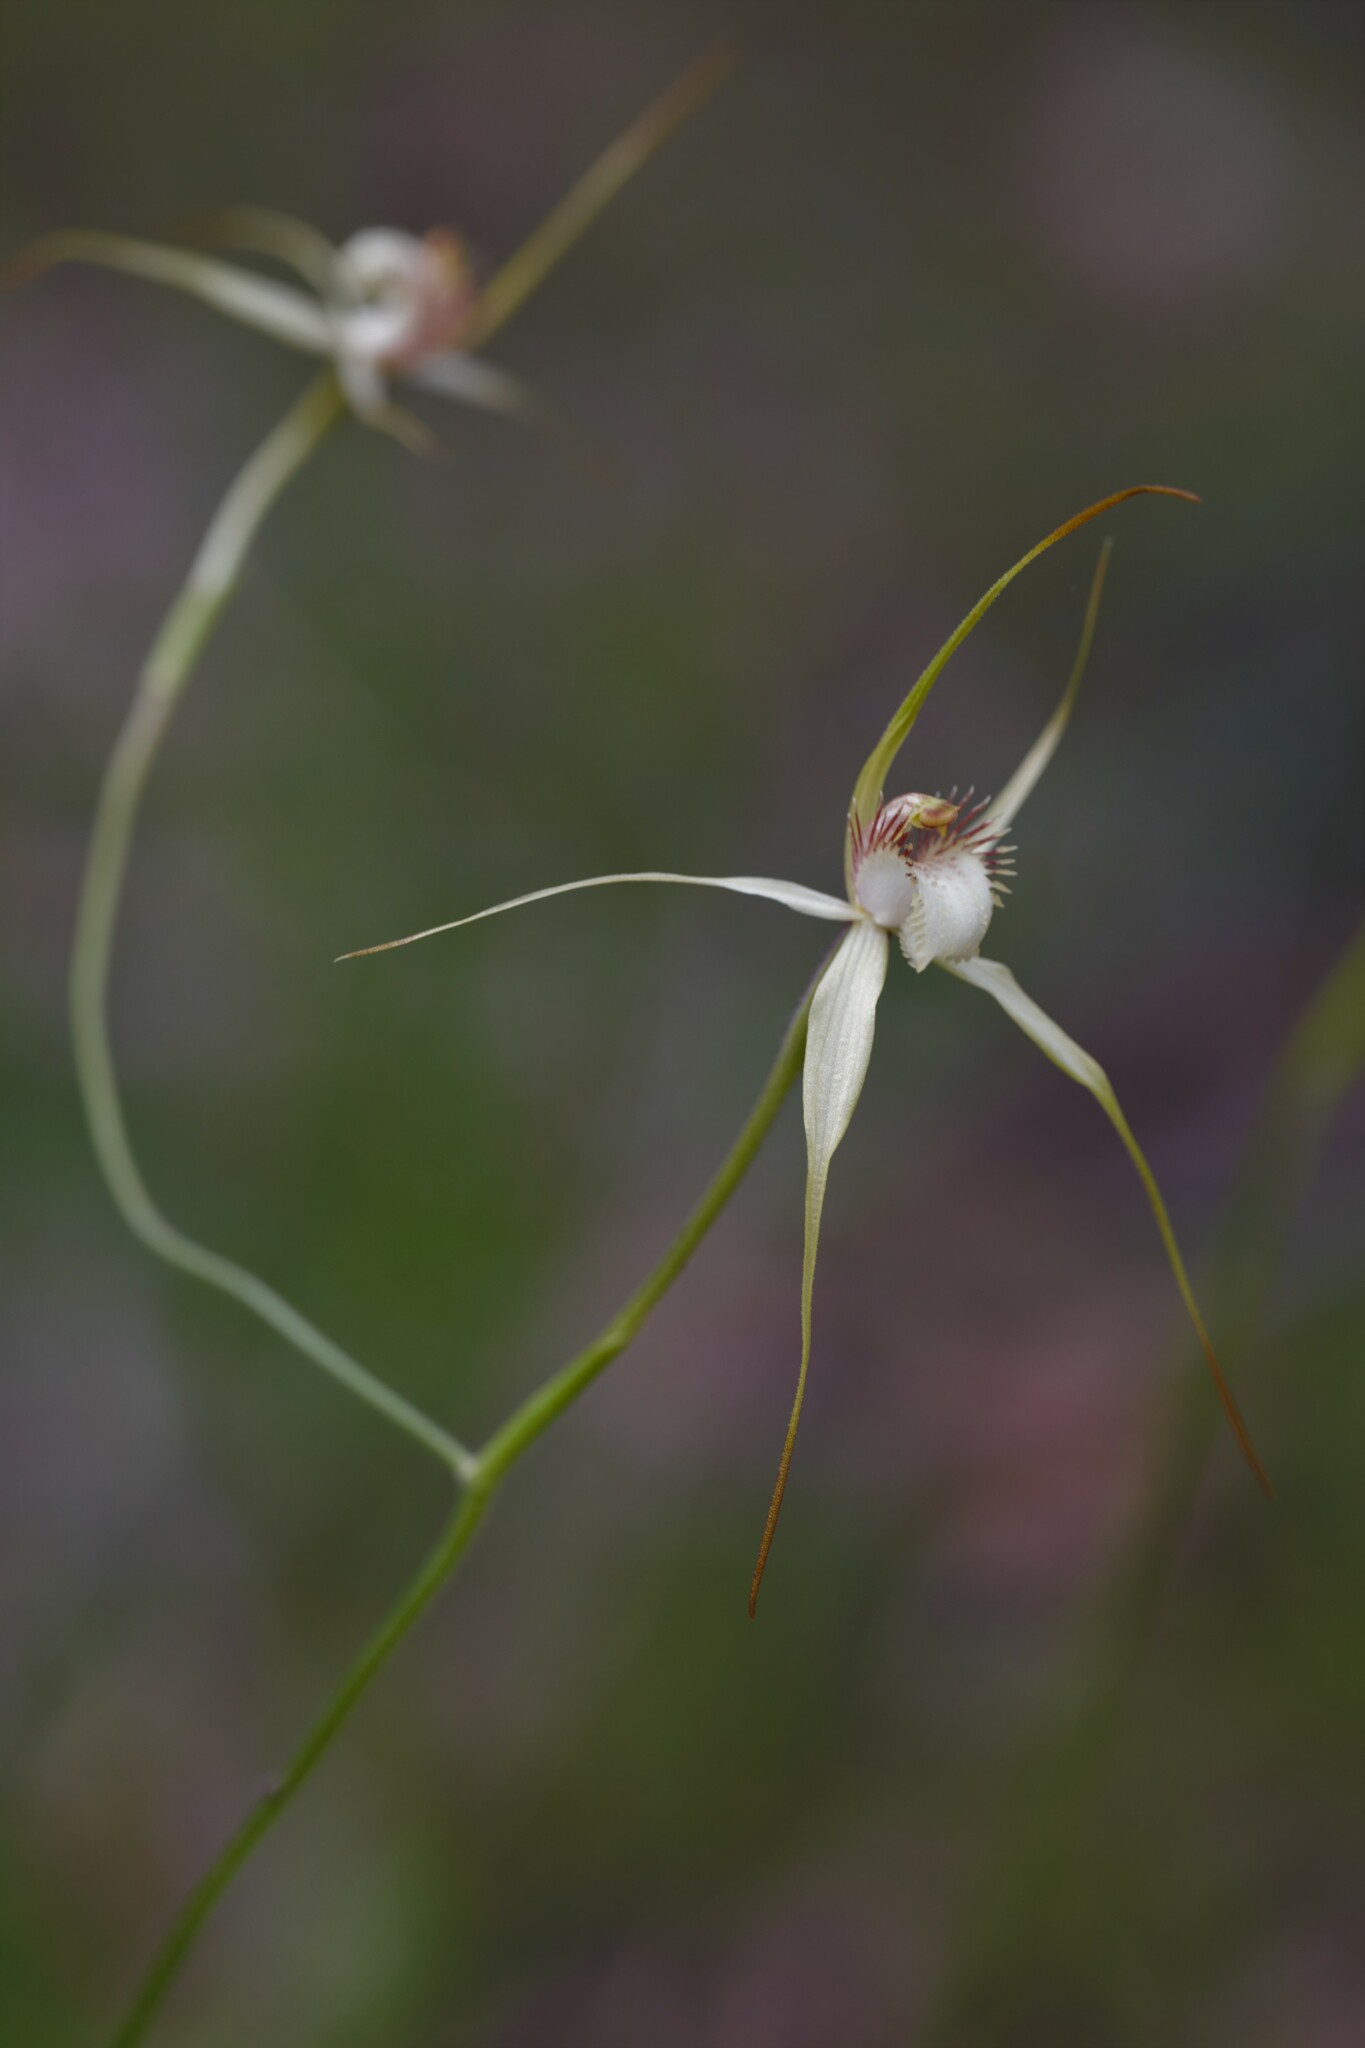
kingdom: Plantae
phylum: Tracheophyta
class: Liliopsida
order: Asparagales
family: Orchidaceae
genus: Caladenia
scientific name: Caladenia busselliana
